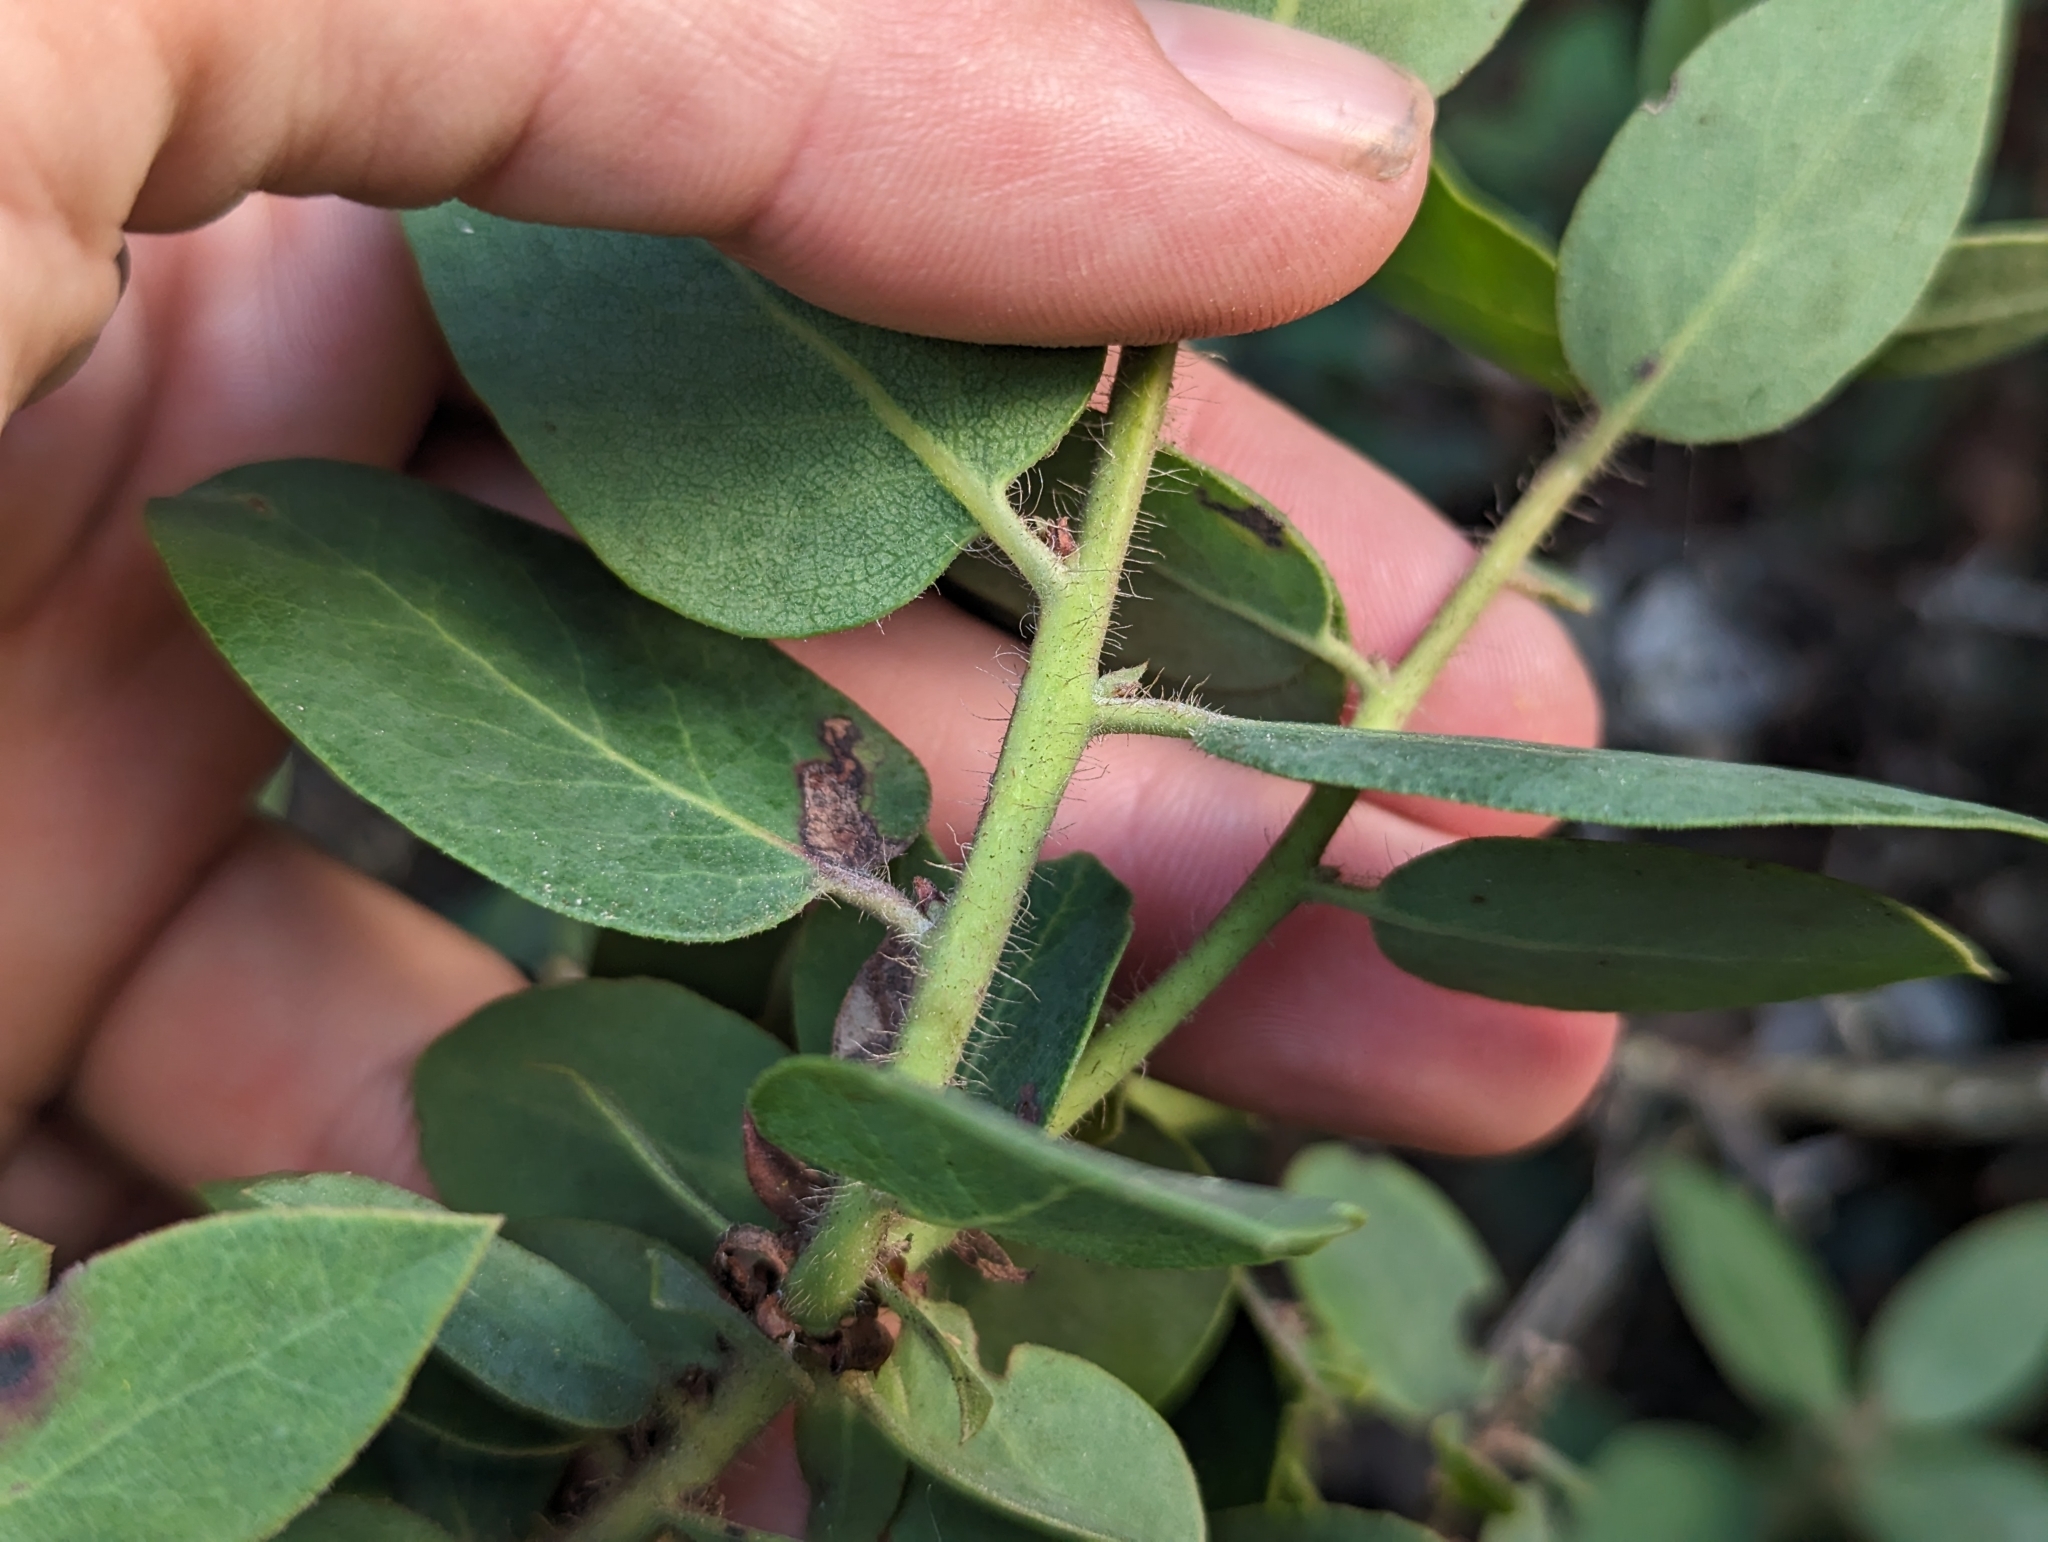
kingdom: Plantae
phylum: Tracheophyta
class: Magnoliopsida
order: Ericales
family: Ericaceae
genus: Arctostaphylos
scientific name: Arctostaphylos crustacea
